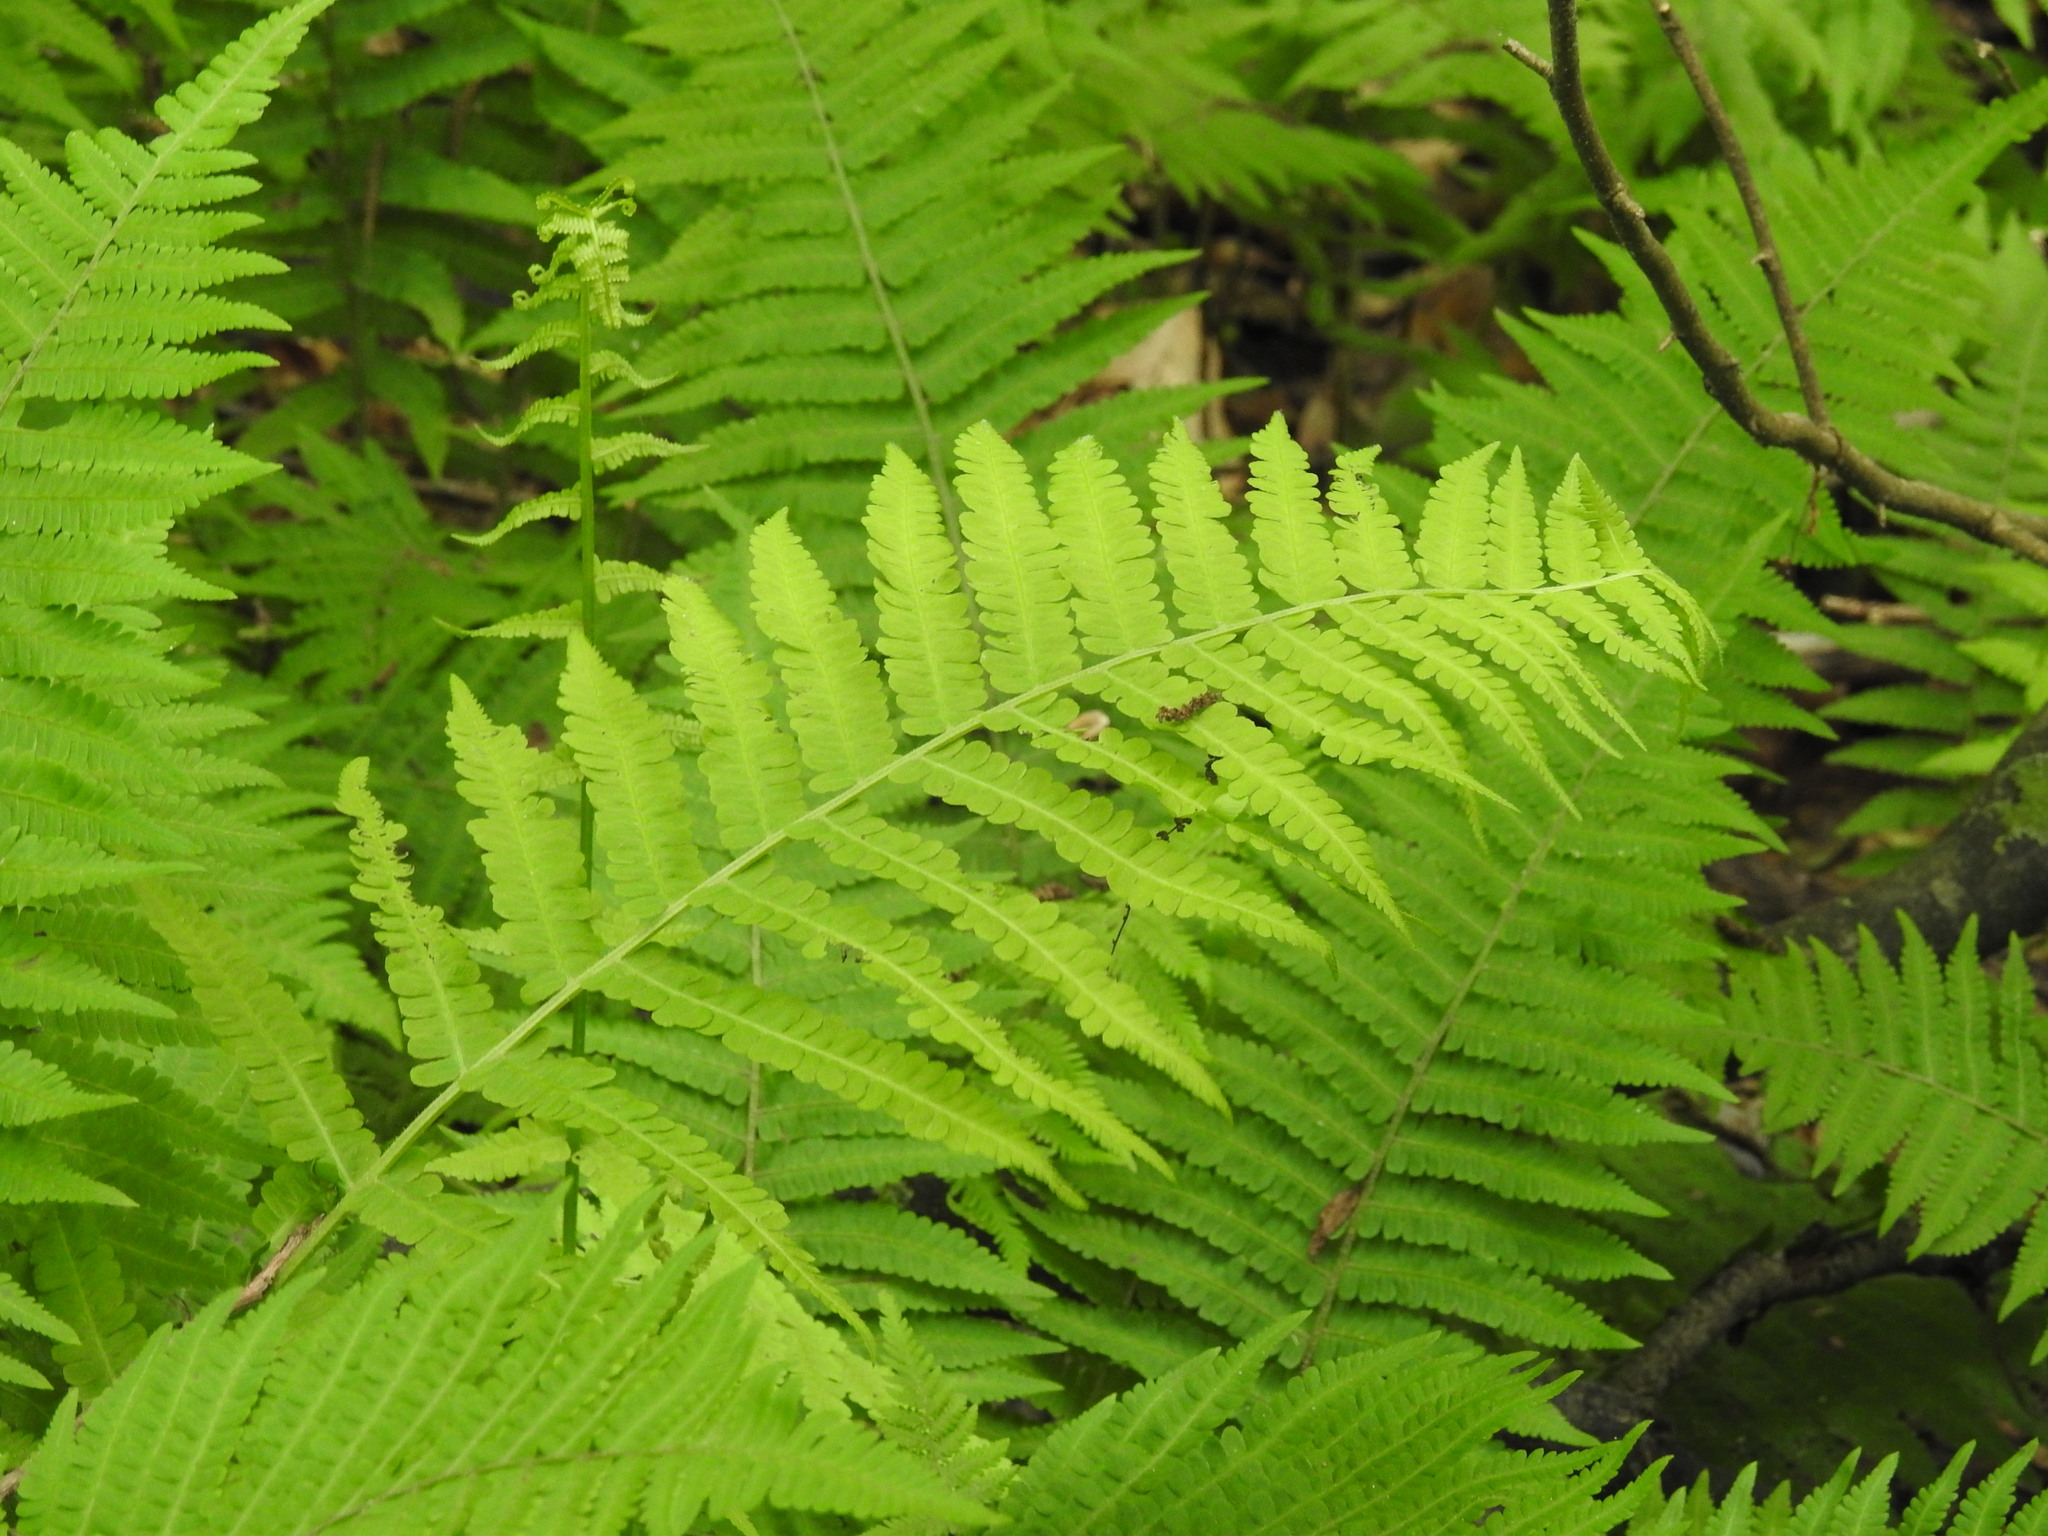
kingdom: Plantae
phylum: Tracheophyta
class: Polypodiopsida
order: Polypodiales
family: Athyriaceae
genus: Deparia
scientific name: Deparia acrostichoides
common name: Silver false spleenwort
